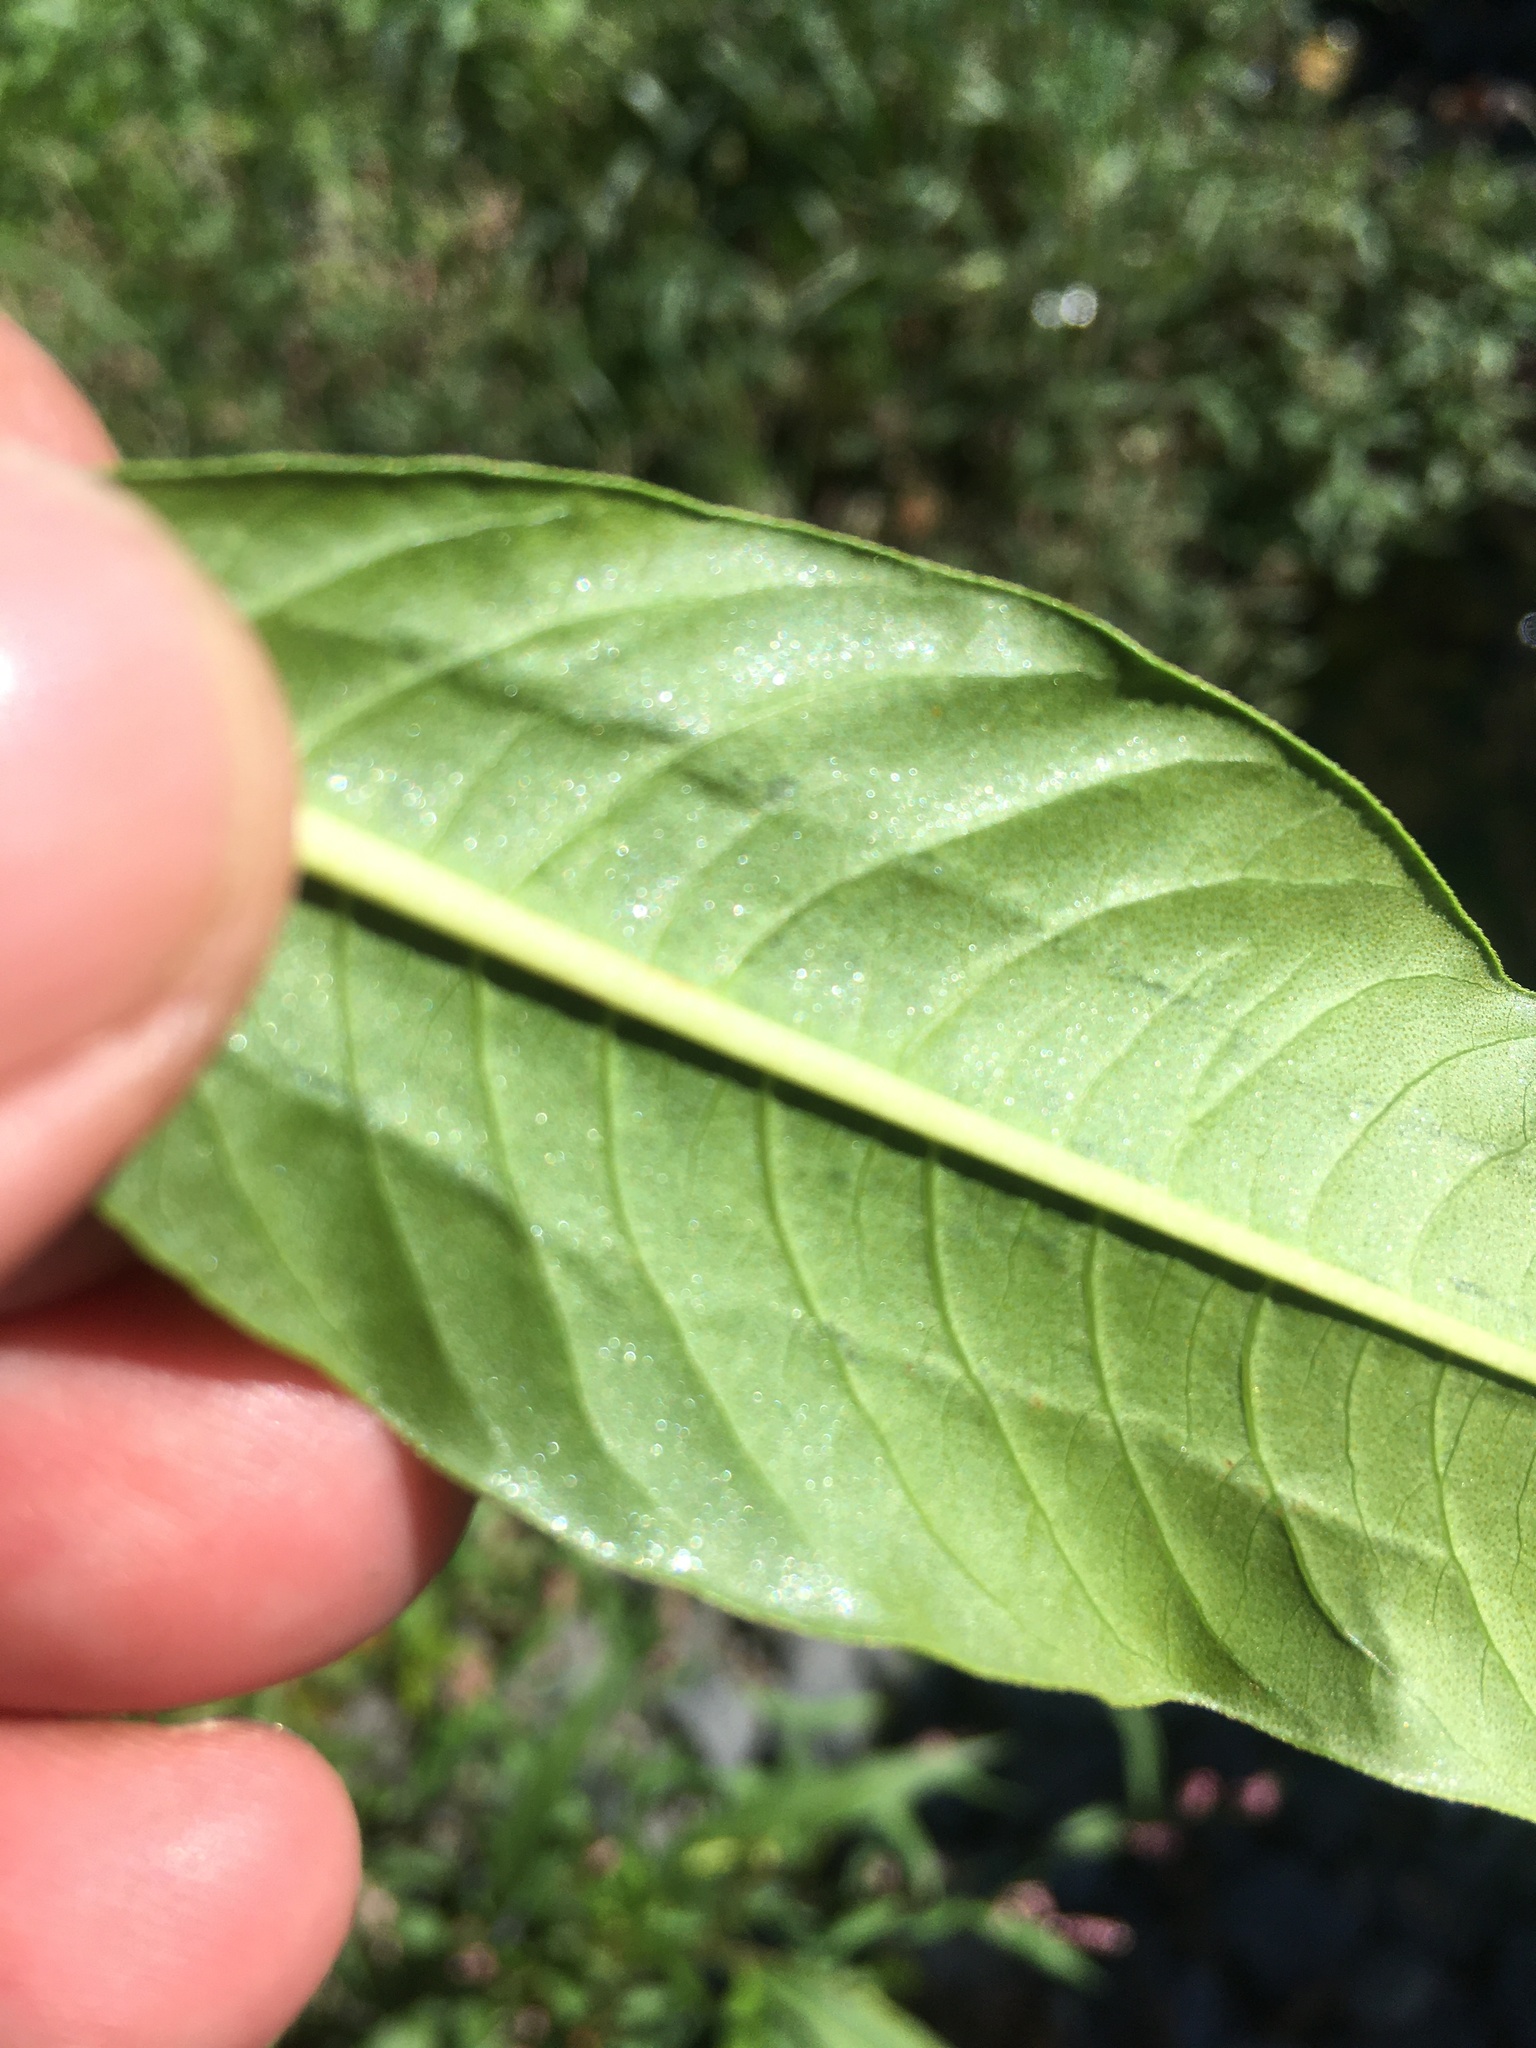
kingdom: Plantae
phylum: Tracheophyta
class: Magnoliopsida
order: Caryophyllales
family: Polygonaceae
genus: Persicaria
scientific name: Persicaria lapathifolia
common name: Curlytop knotweed
